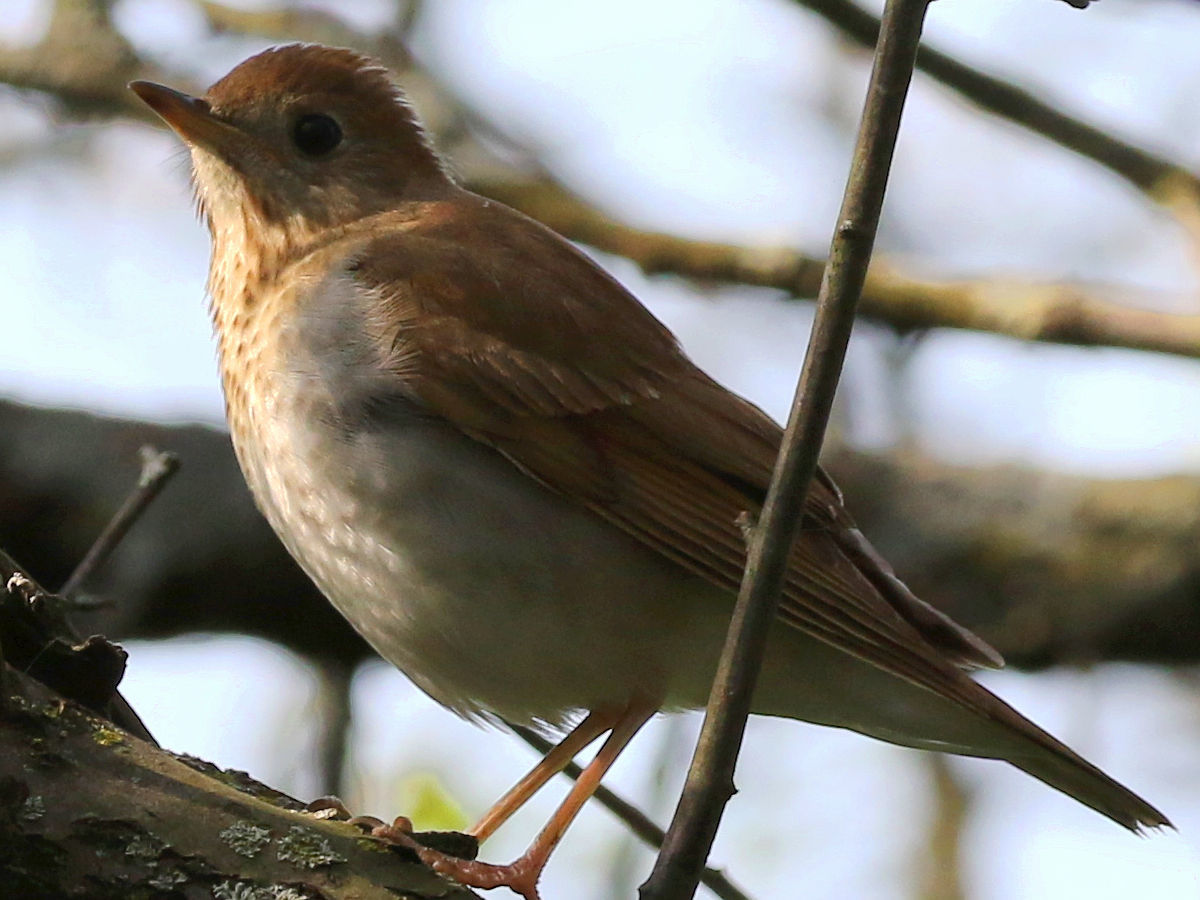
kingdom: Animalia
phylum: Chordata
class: Aves
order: Passeriformes
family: Turdidae
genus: Catharus
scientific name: Catharus fuscescens
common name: Veery
